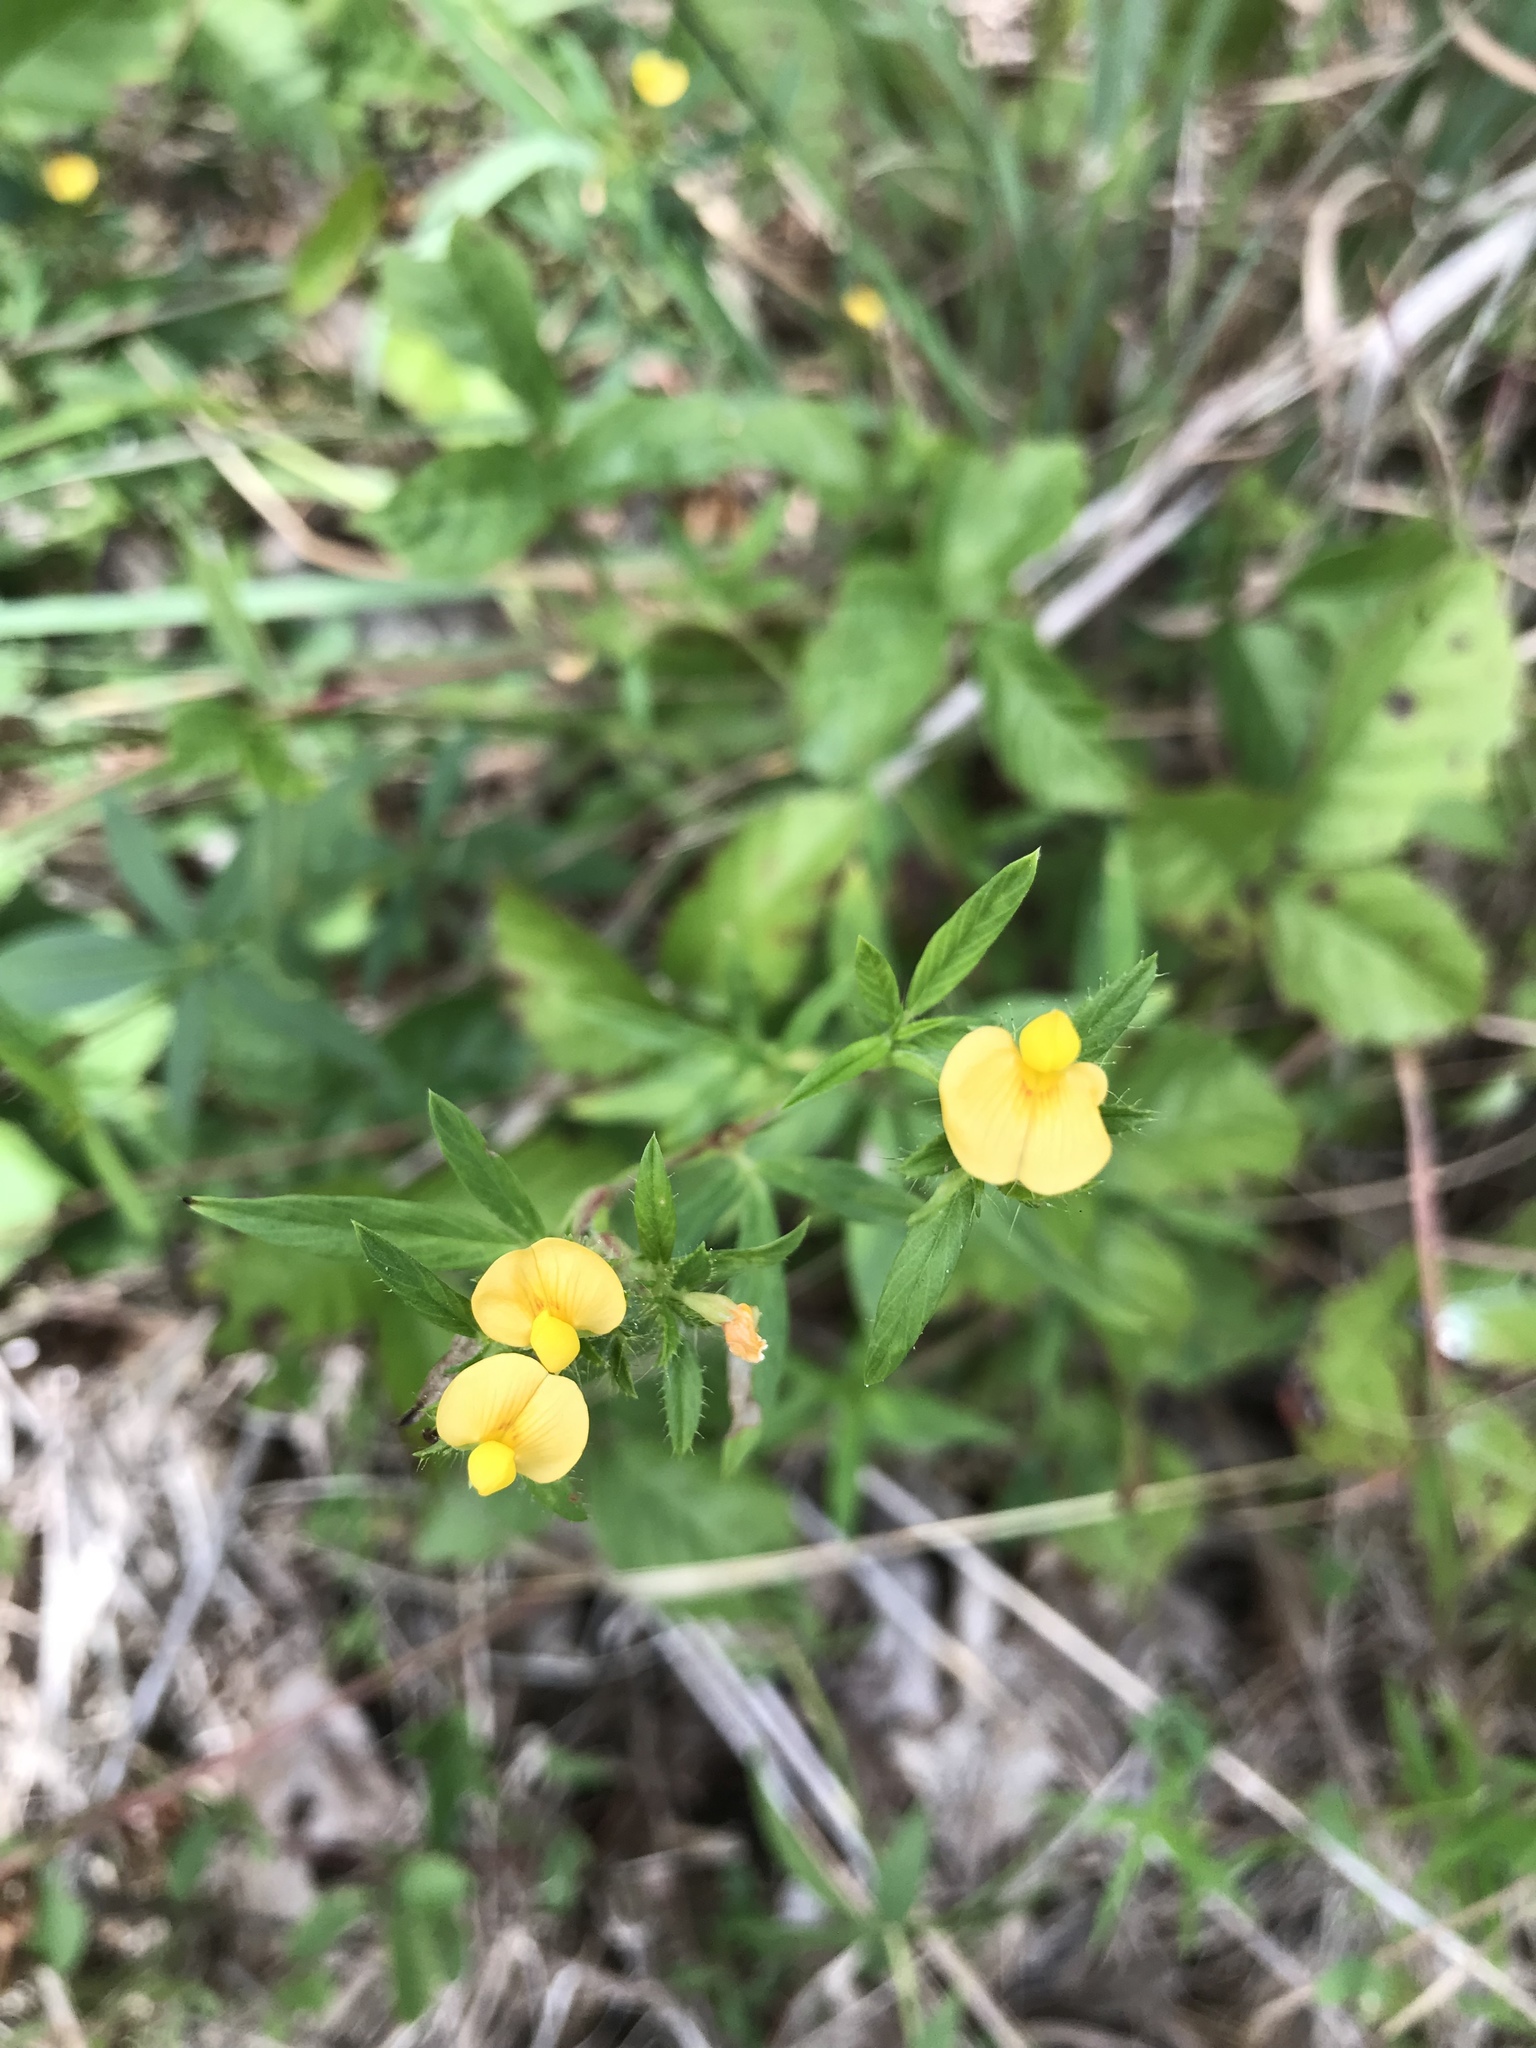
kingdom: Plantae
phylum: Tracheophyta
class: Magnoliopsida
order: Fabales
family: Fabaceae
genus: Stylosanthes
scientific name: Stylosanthes biflora
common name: Two-flower pencil-flower
